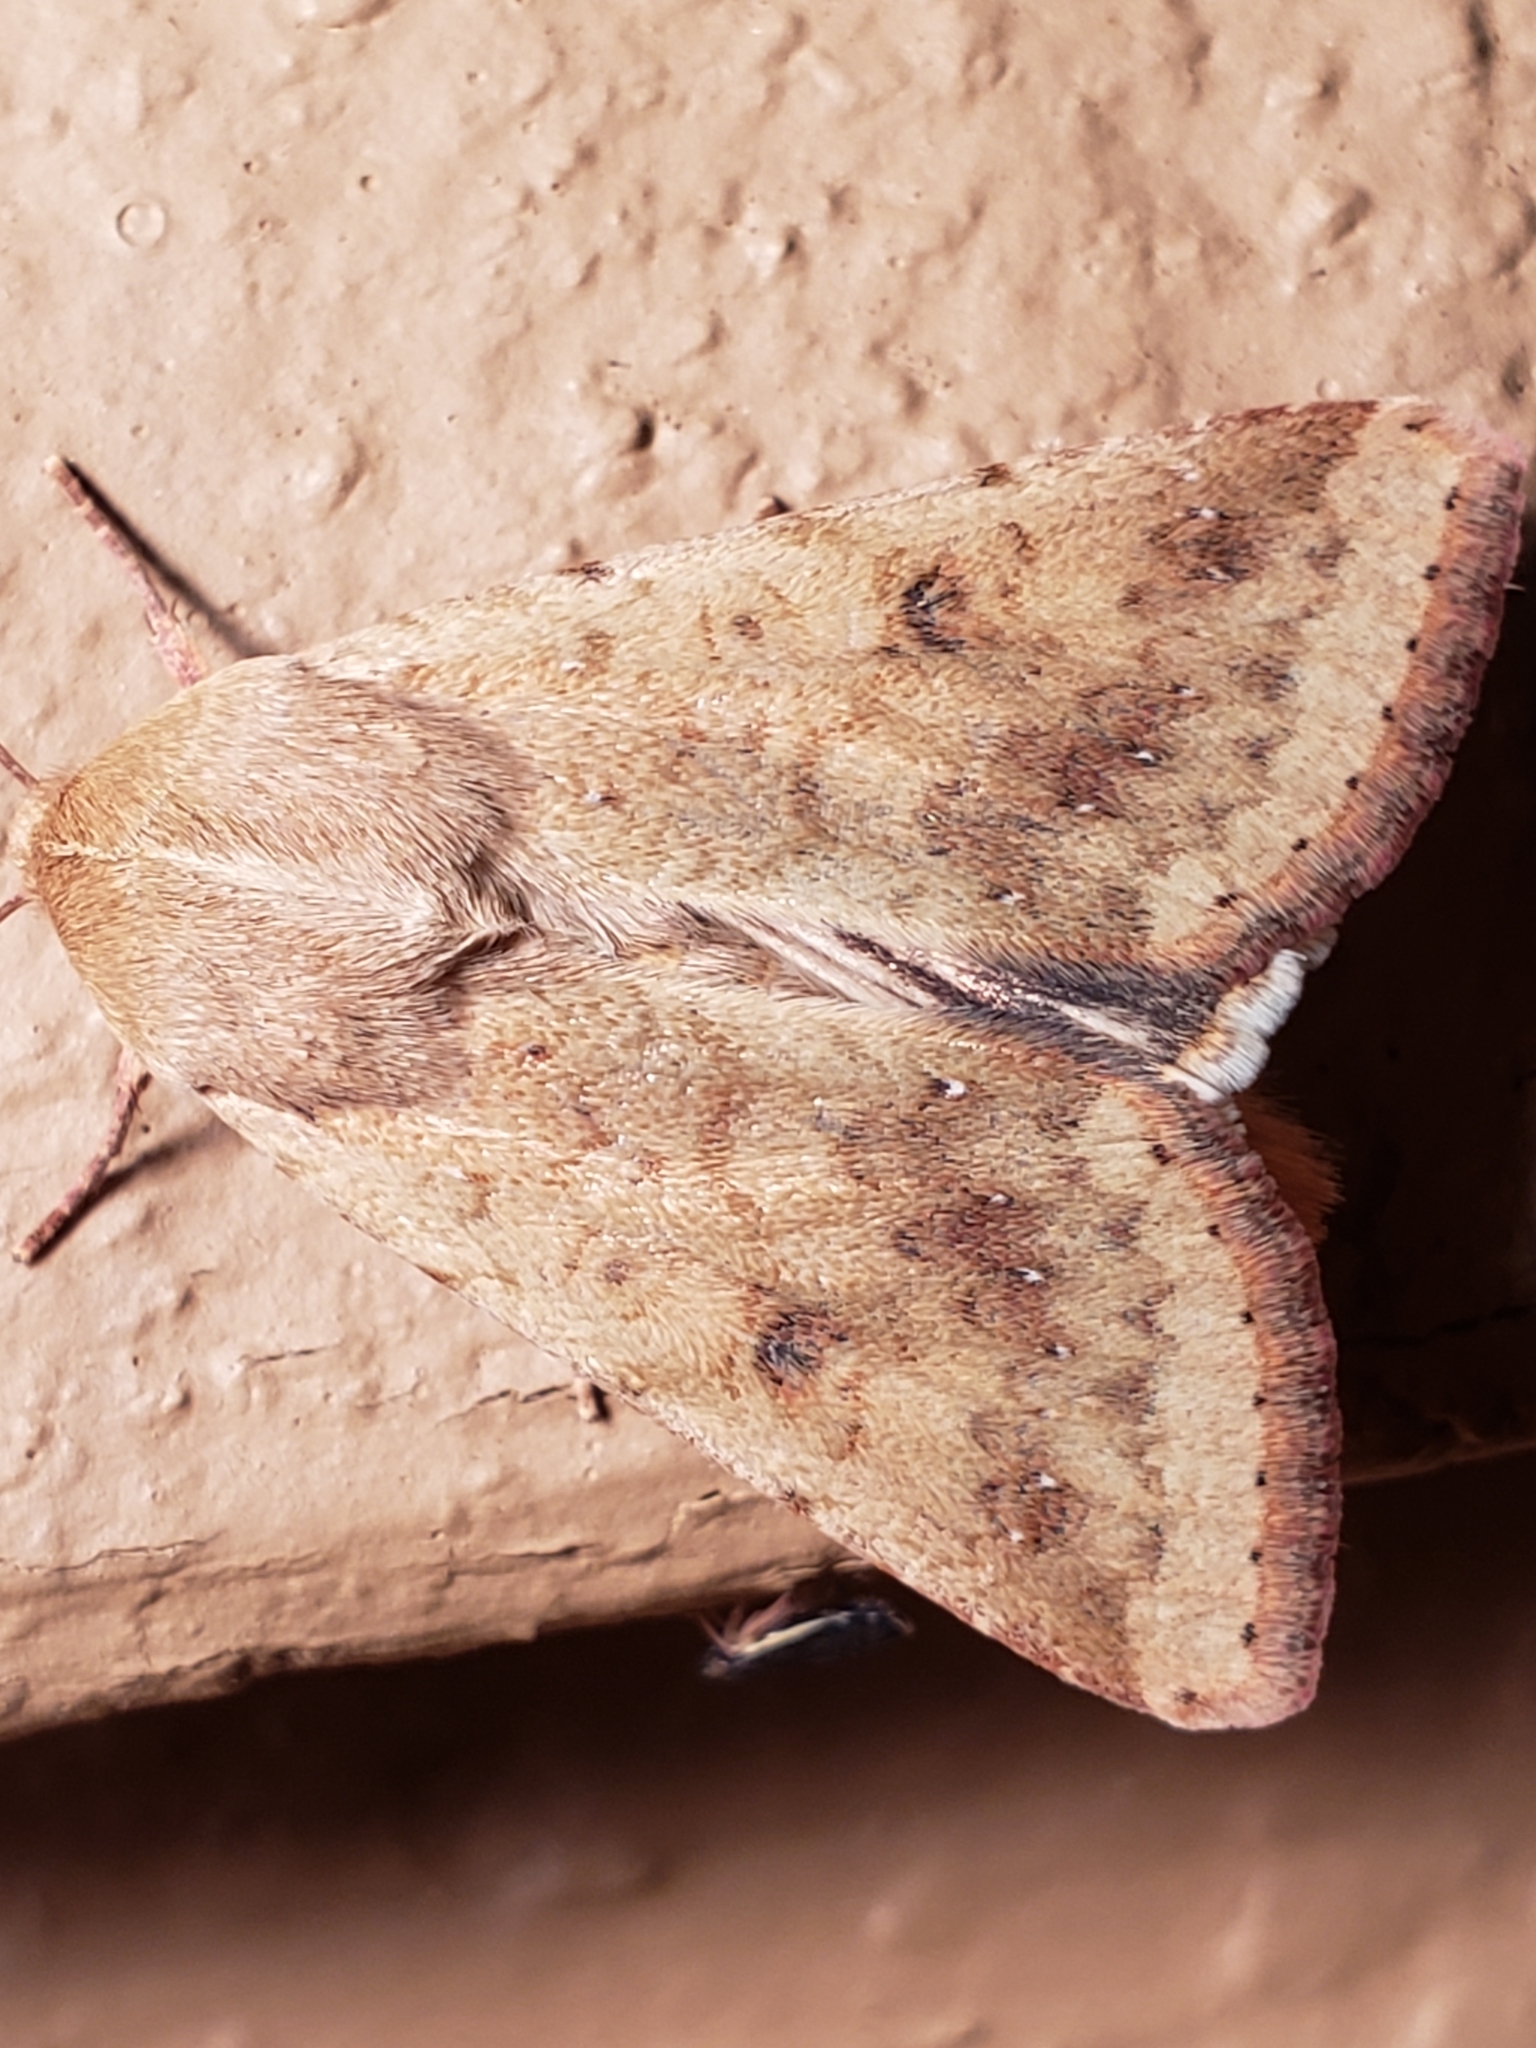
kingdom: Animalia
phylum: Arthropoda
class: Insecta
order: Lepidoptera
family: Noctuidae
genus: Helicoverpa
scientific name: Helicoverpa zea
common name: Bollworm
